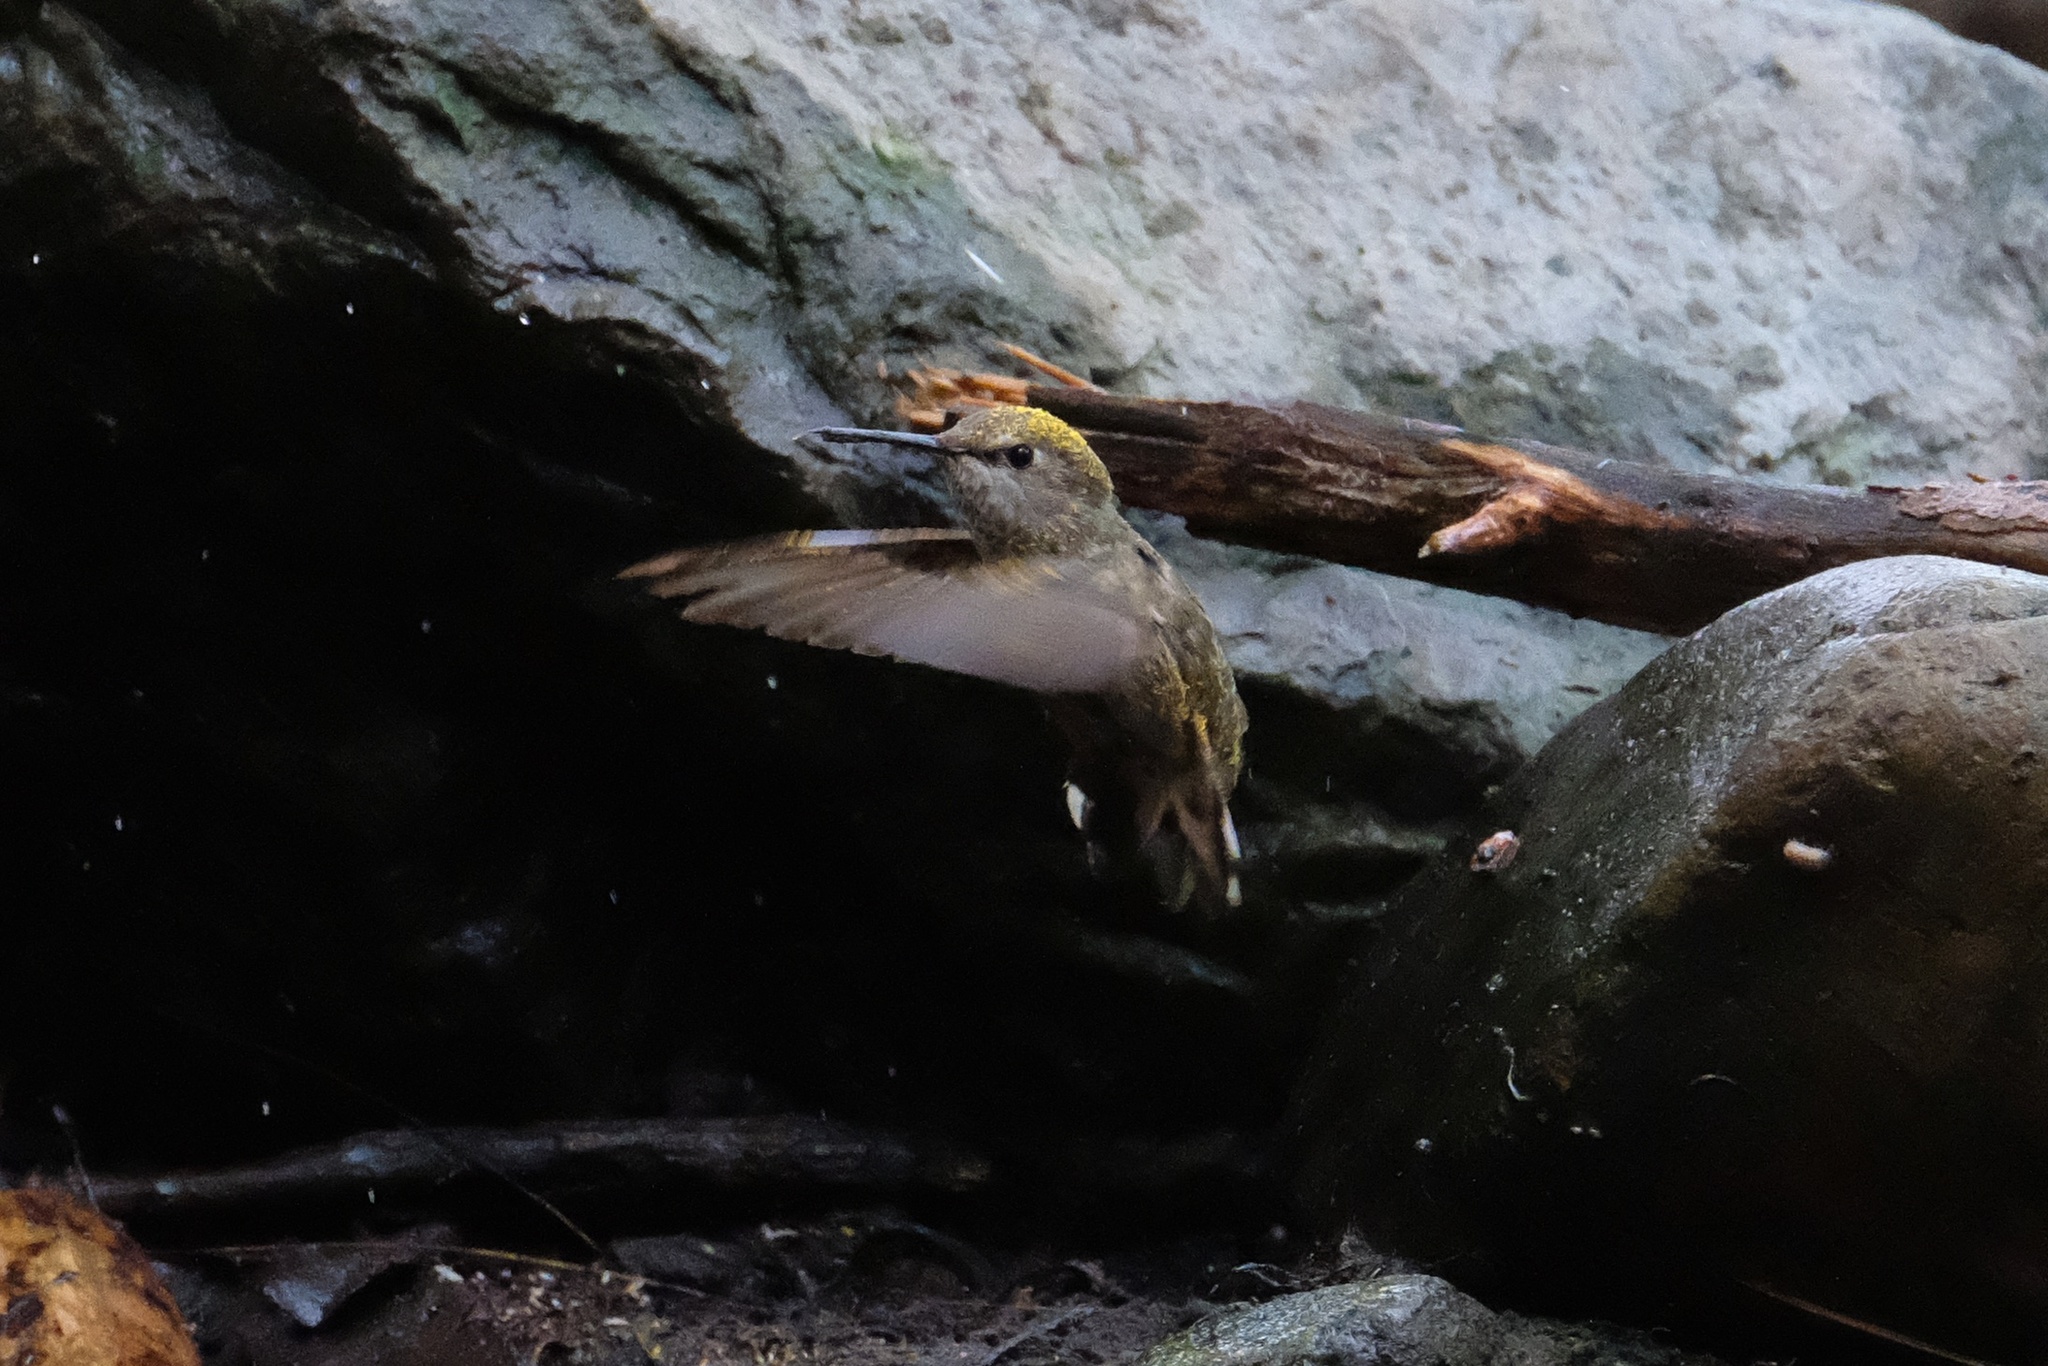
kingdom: Animalia
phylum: Chordata
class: Aves
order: Apodiformes
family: Trochilidae
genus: Calypte
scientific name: Calypte anna
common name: Anna's hummingbird
